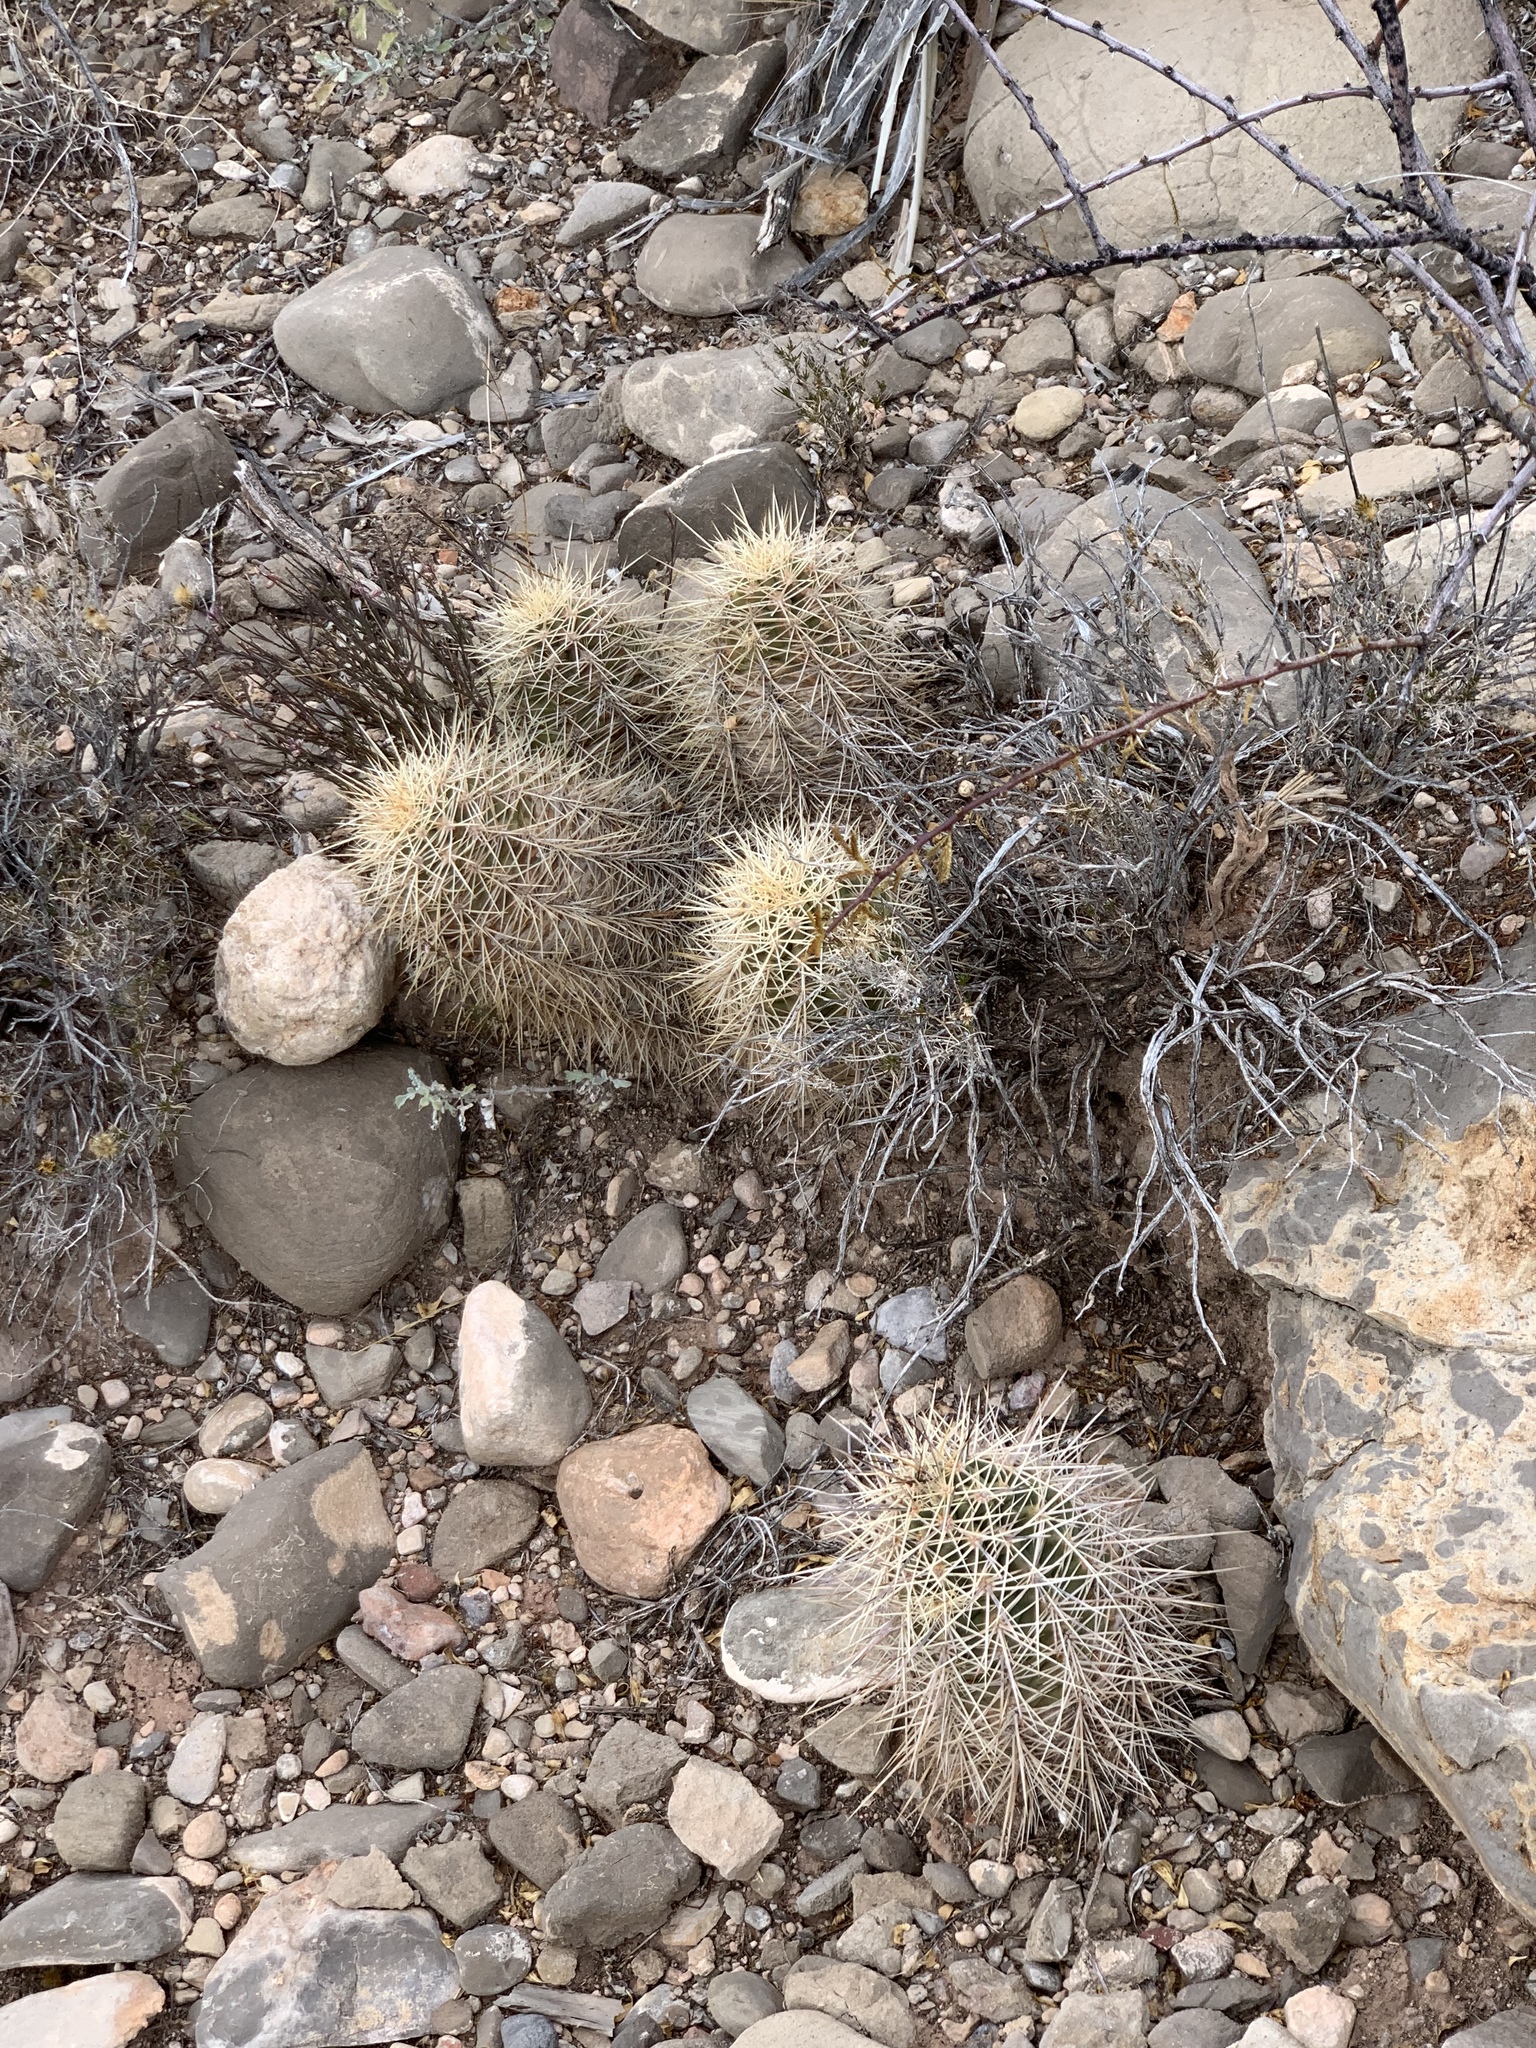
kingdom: Plantae
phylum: Tracheophyta
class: Magnoliopsida
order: Caryophyllales
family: Cactaceae
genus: Echinocereus
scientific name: Echinocereus coccineus
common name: Scarlet hedgehog cactus
